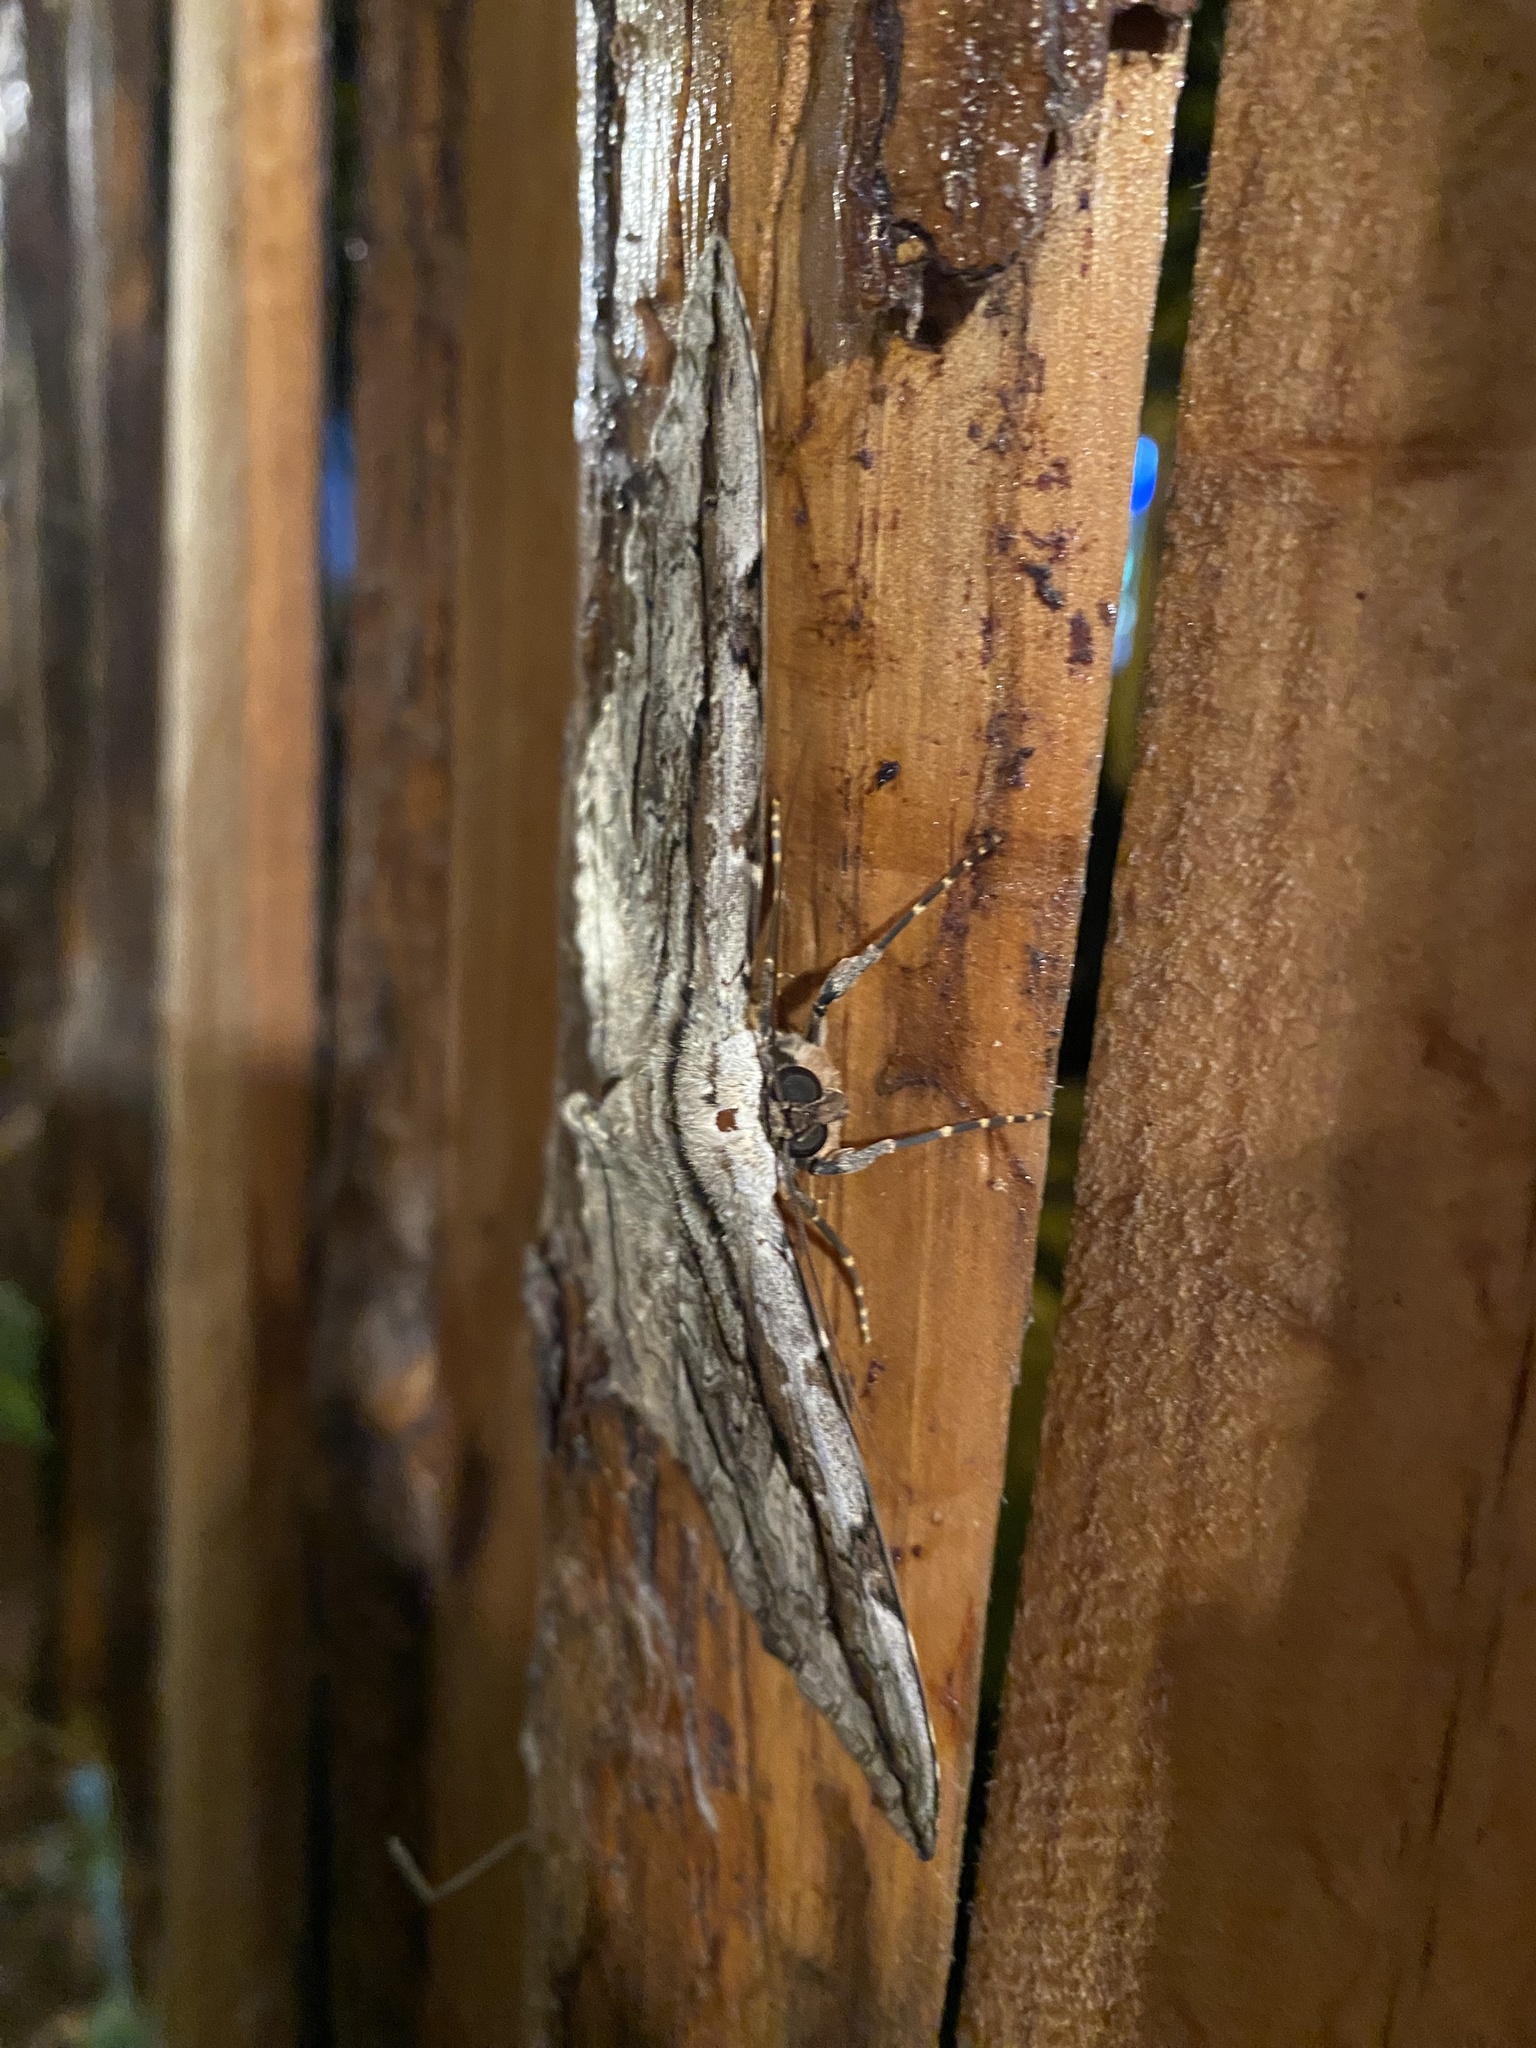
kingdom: Animalia
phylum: Arthropoda
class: Insecta
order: Lepidoptera
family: Erebidae
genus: Thysania
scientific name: Thysania zenobia
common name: Owl moth
